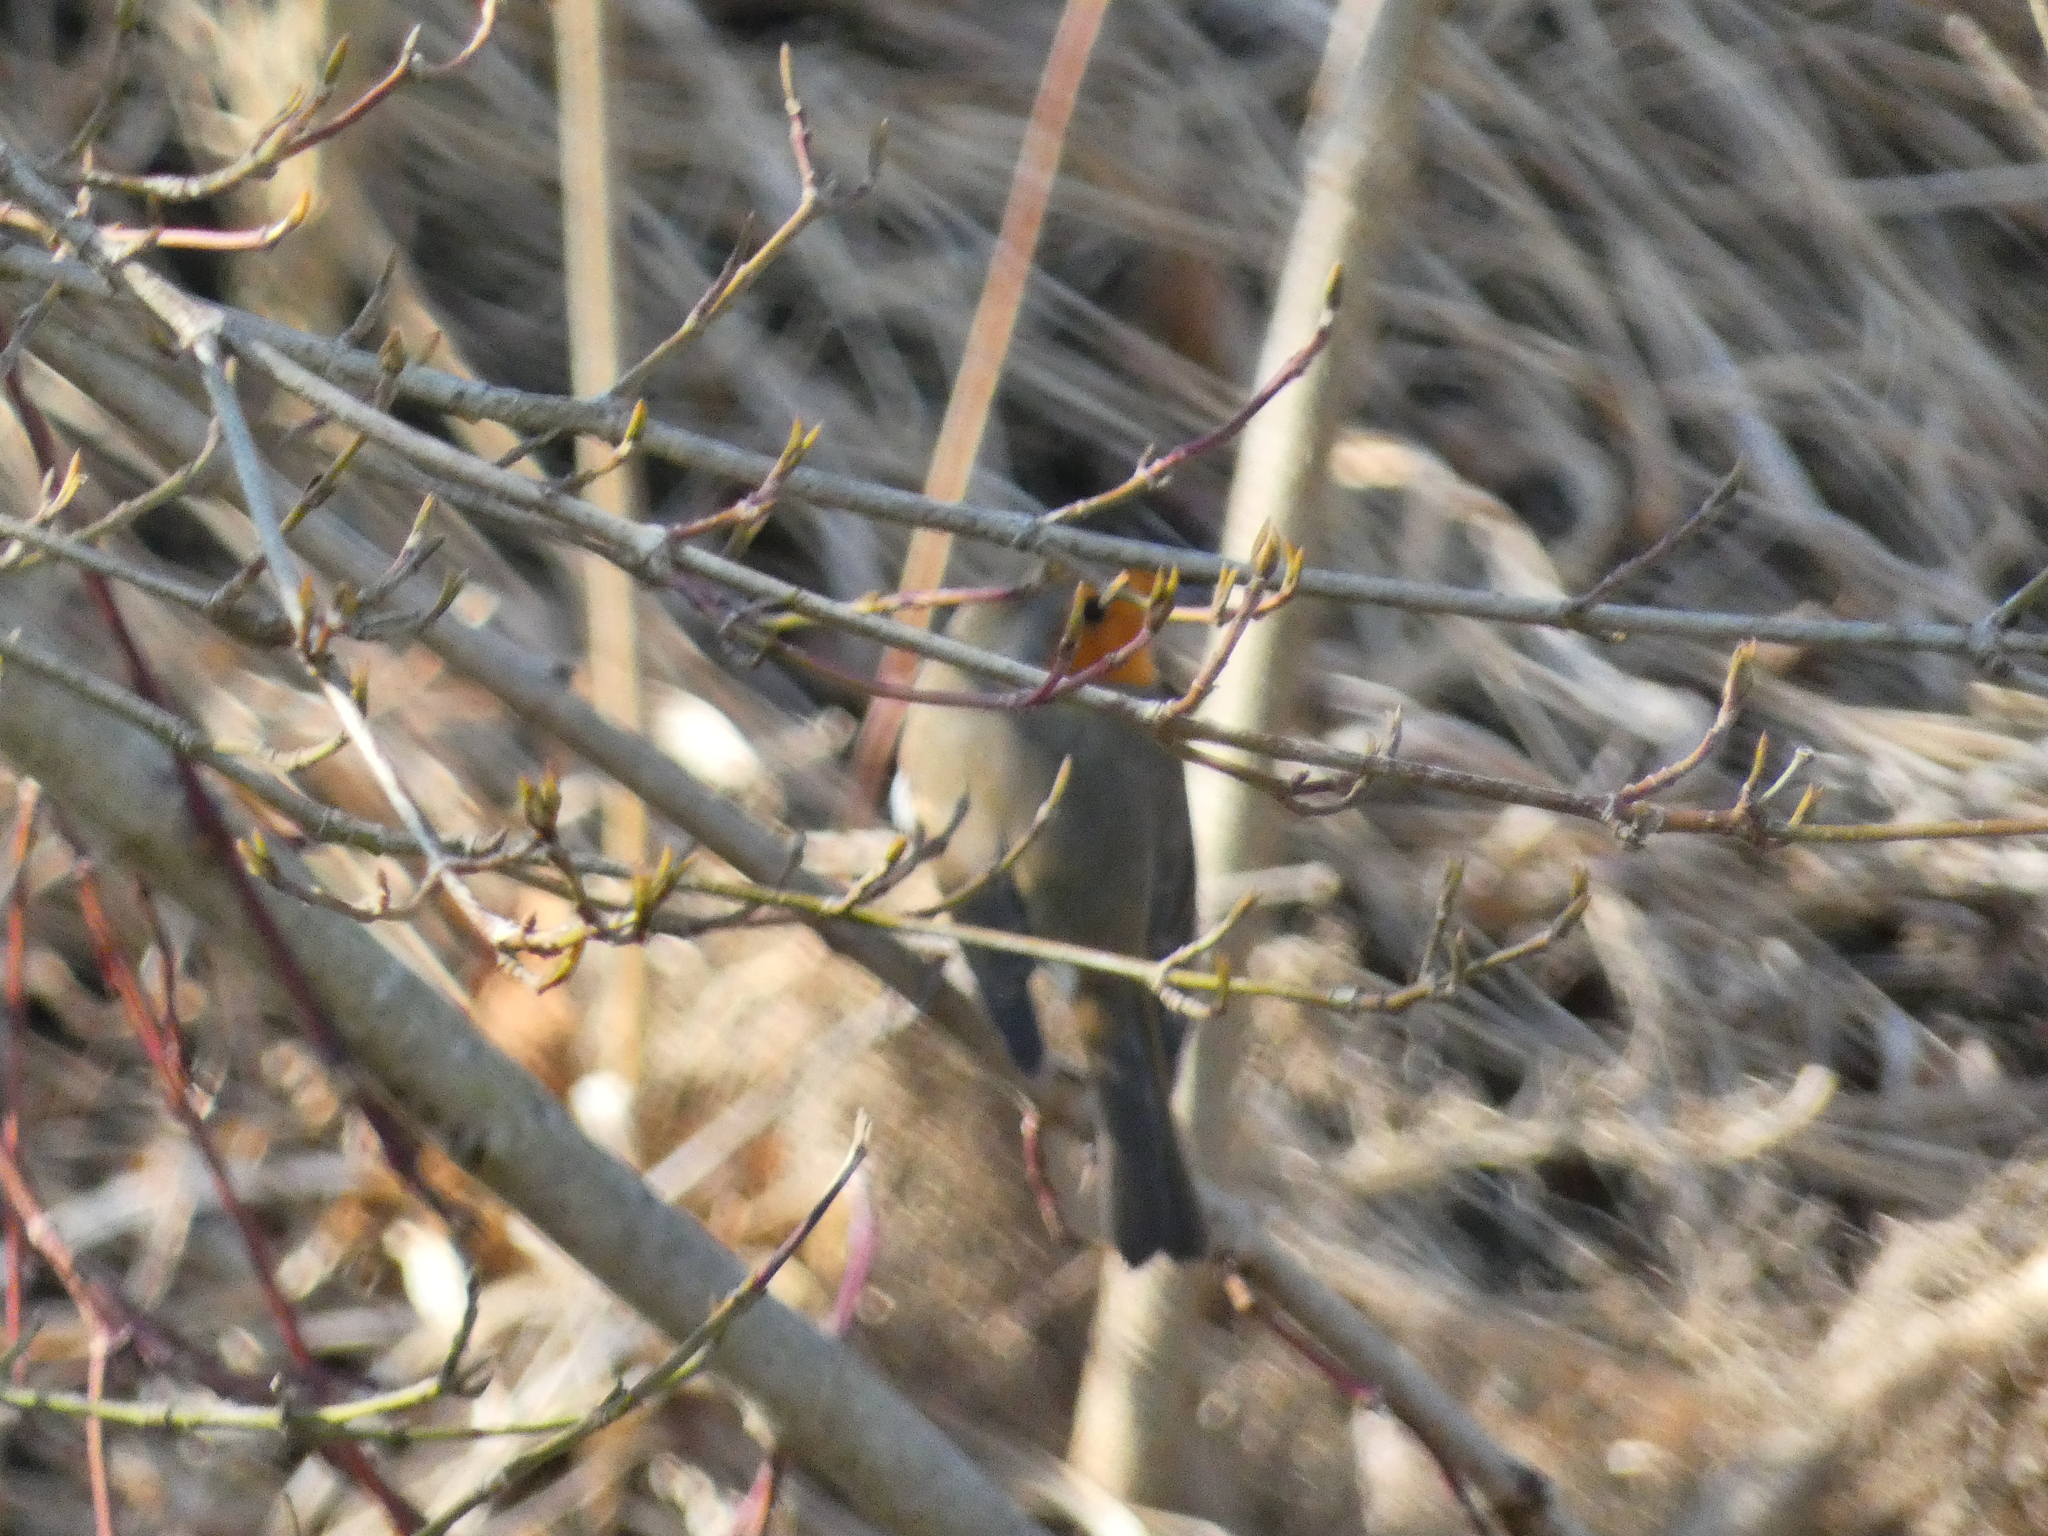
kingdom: Animalia
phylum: Chordata
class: Aves
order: Passeriformes
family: Muscicapidae
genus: Erithacus
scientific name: Erithacus rubecula
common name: European robin
